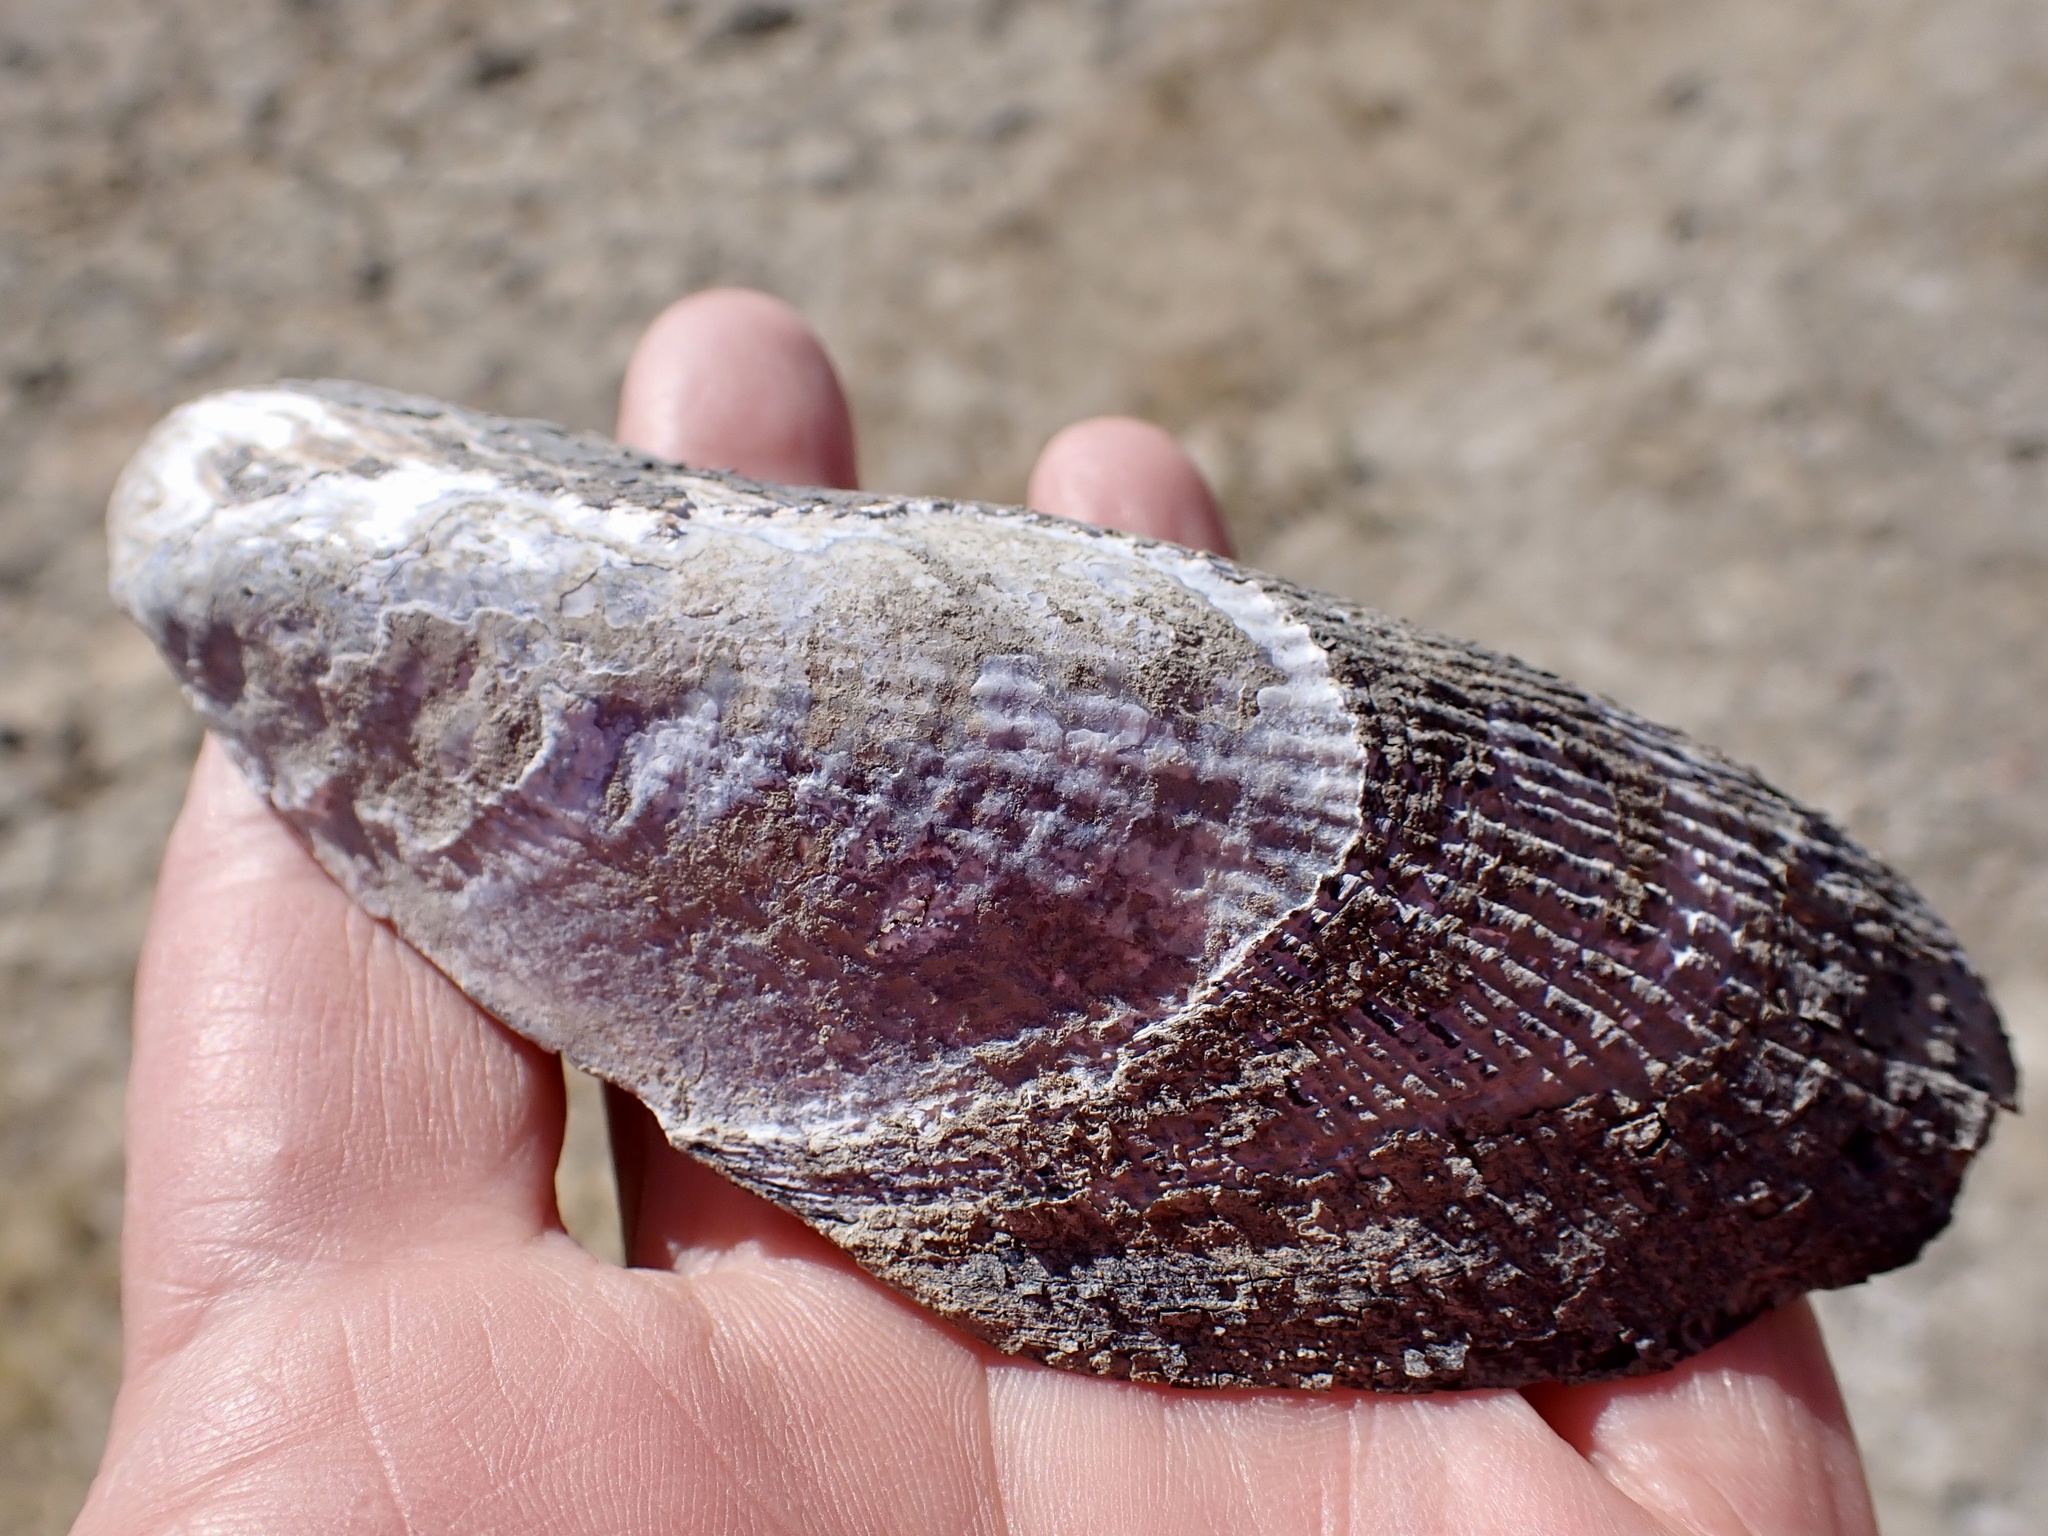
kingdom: Animalia
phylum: Mollusca
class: Bivalvia
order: Mytilida
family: Mytilidae
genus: Geukensia
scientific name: Geukensia demissa
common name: Ribbed mussel
